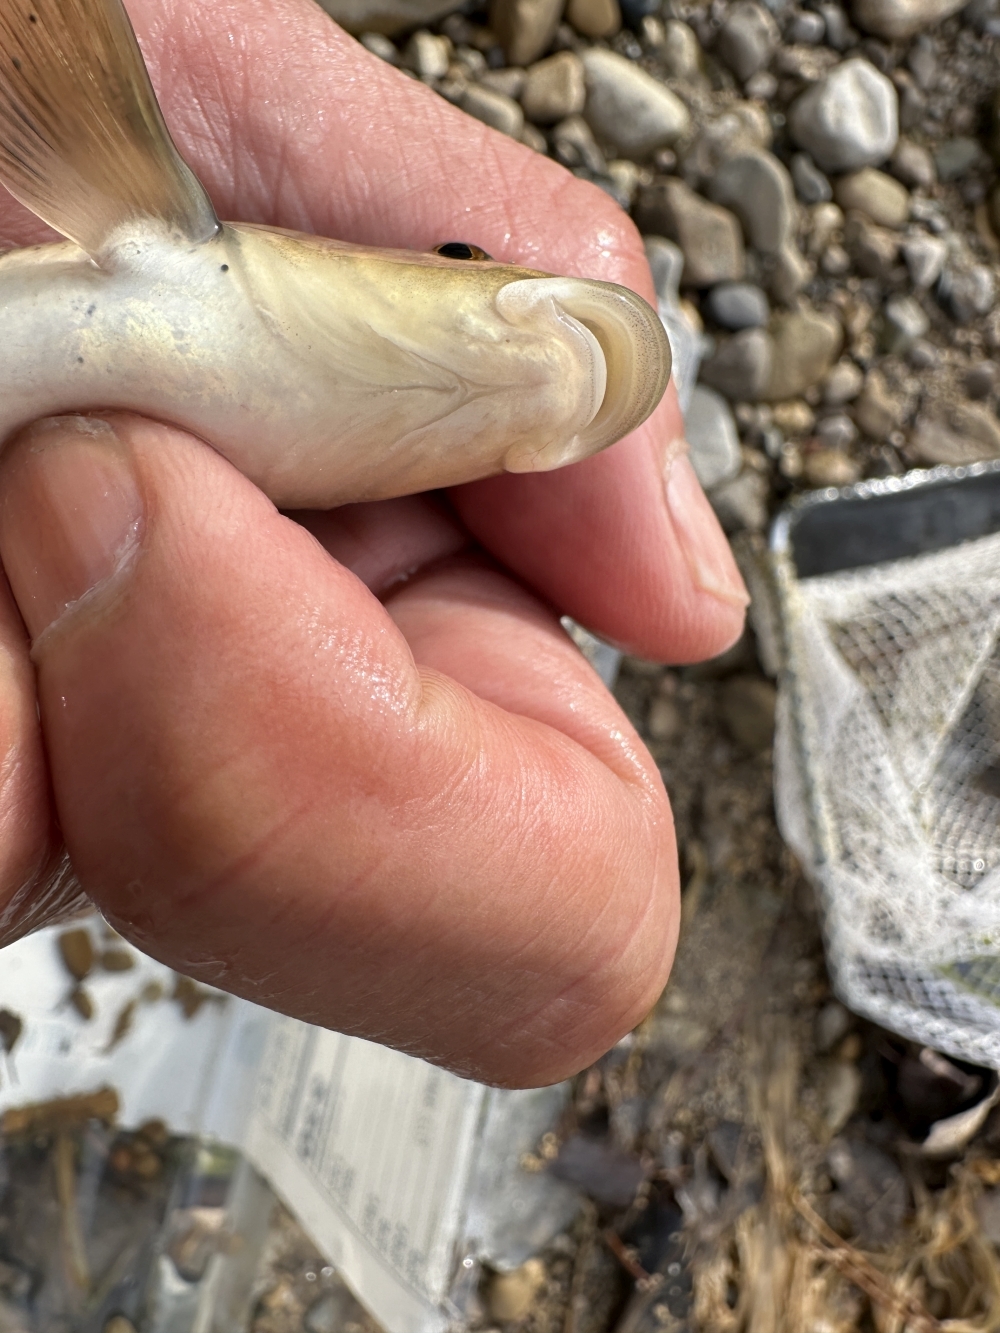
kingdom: Animalia
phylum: Chordata
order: Cypriniformes
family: Cyprinidae
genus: Campostoma
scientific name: Campostoma anomalum
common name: Central stoneroller
